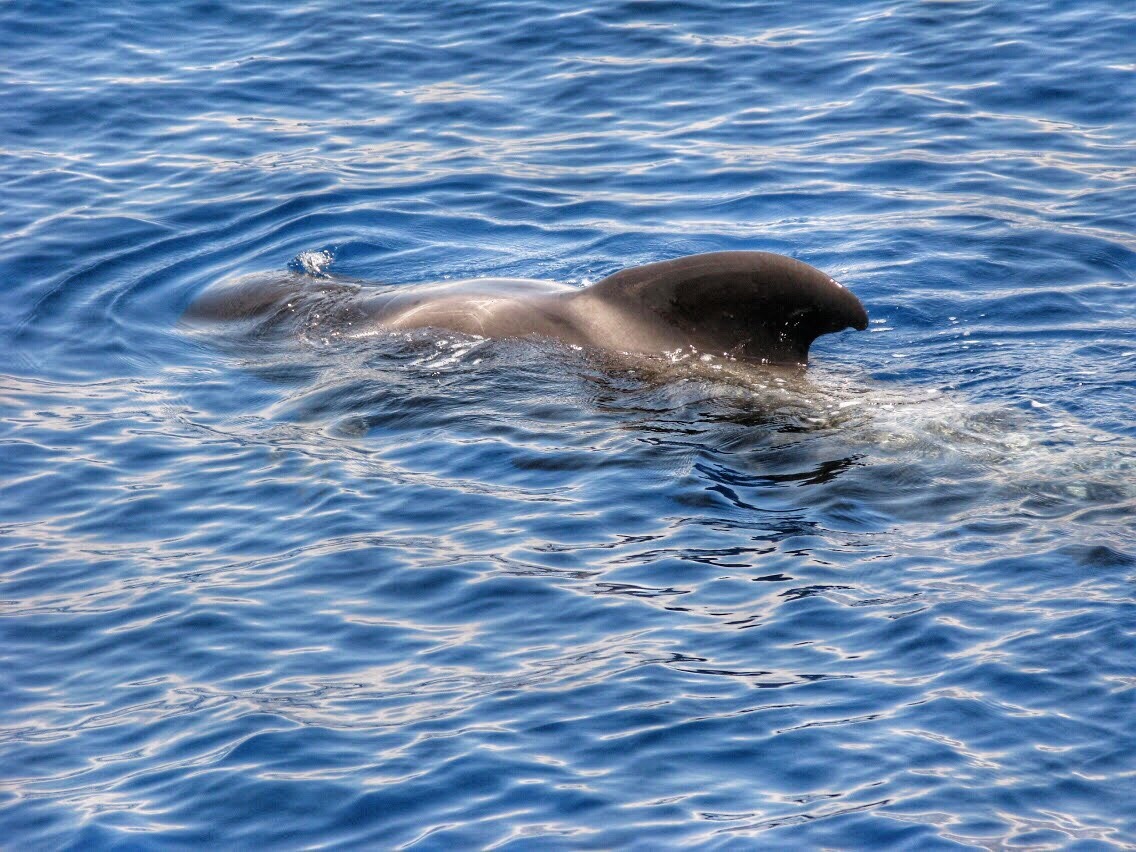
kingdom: Animalia
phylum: Chordata
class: Mammalia
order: Cetacea
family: Delphinidae
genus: Globicephala
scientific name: Globicephala macrorhynchus
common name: Short-finned pilot whale
